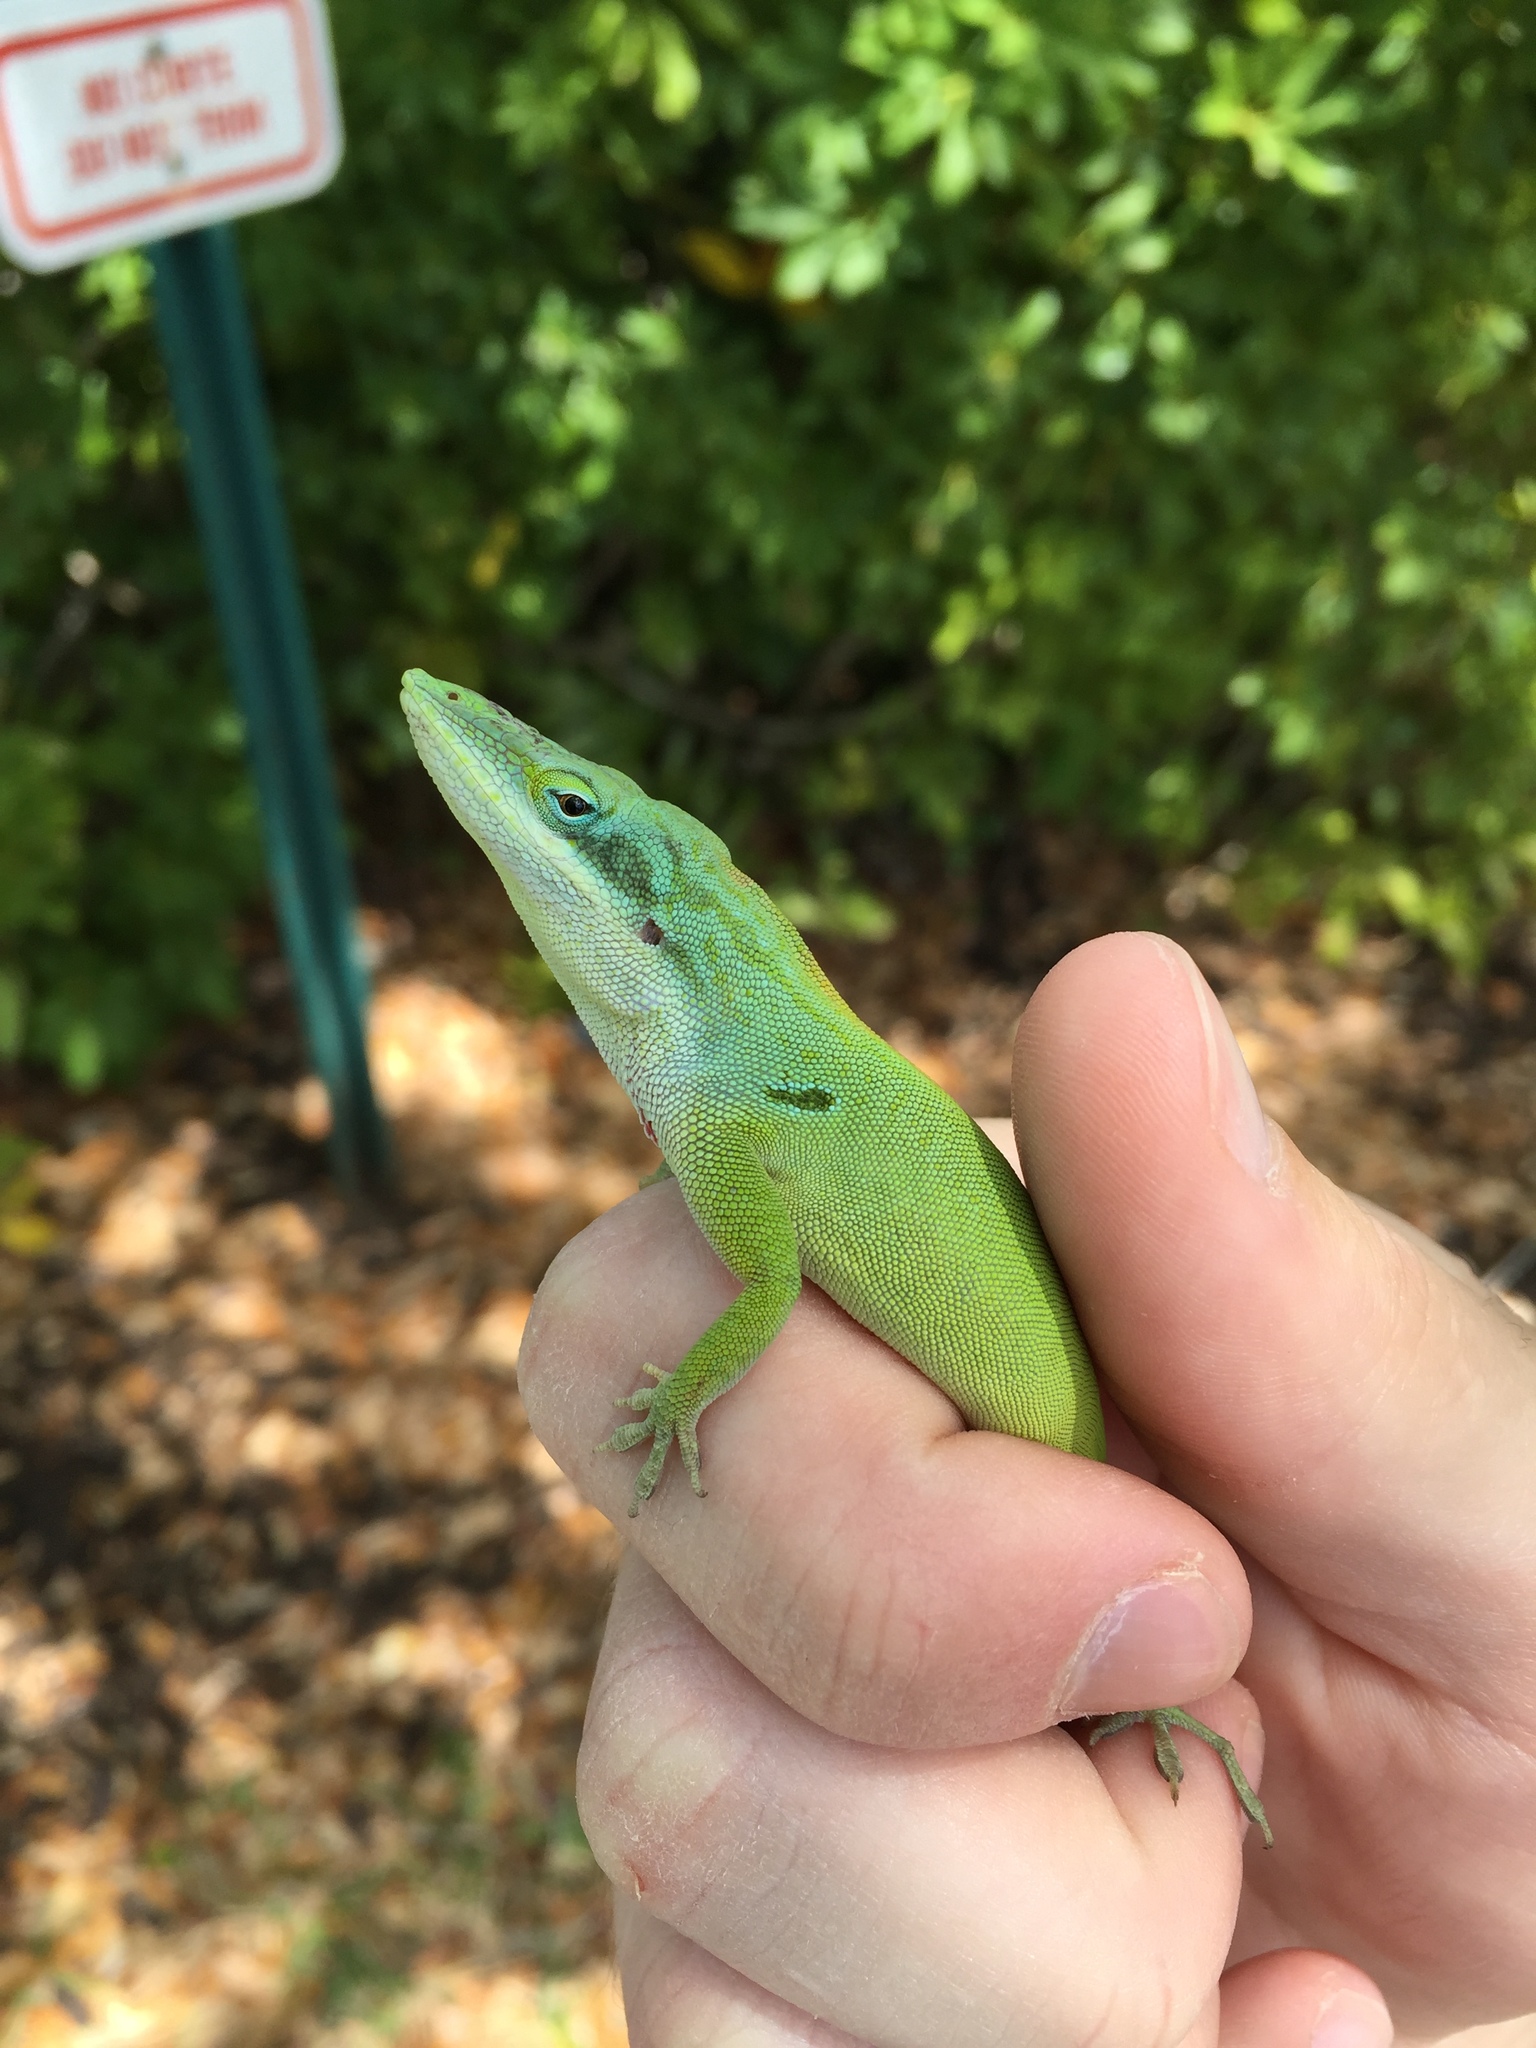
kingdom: Animalia
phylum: Chordata
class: Squamata
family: Dactyloidae
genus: Anolis
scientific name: Anolis allisoni
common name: Allison's anole
